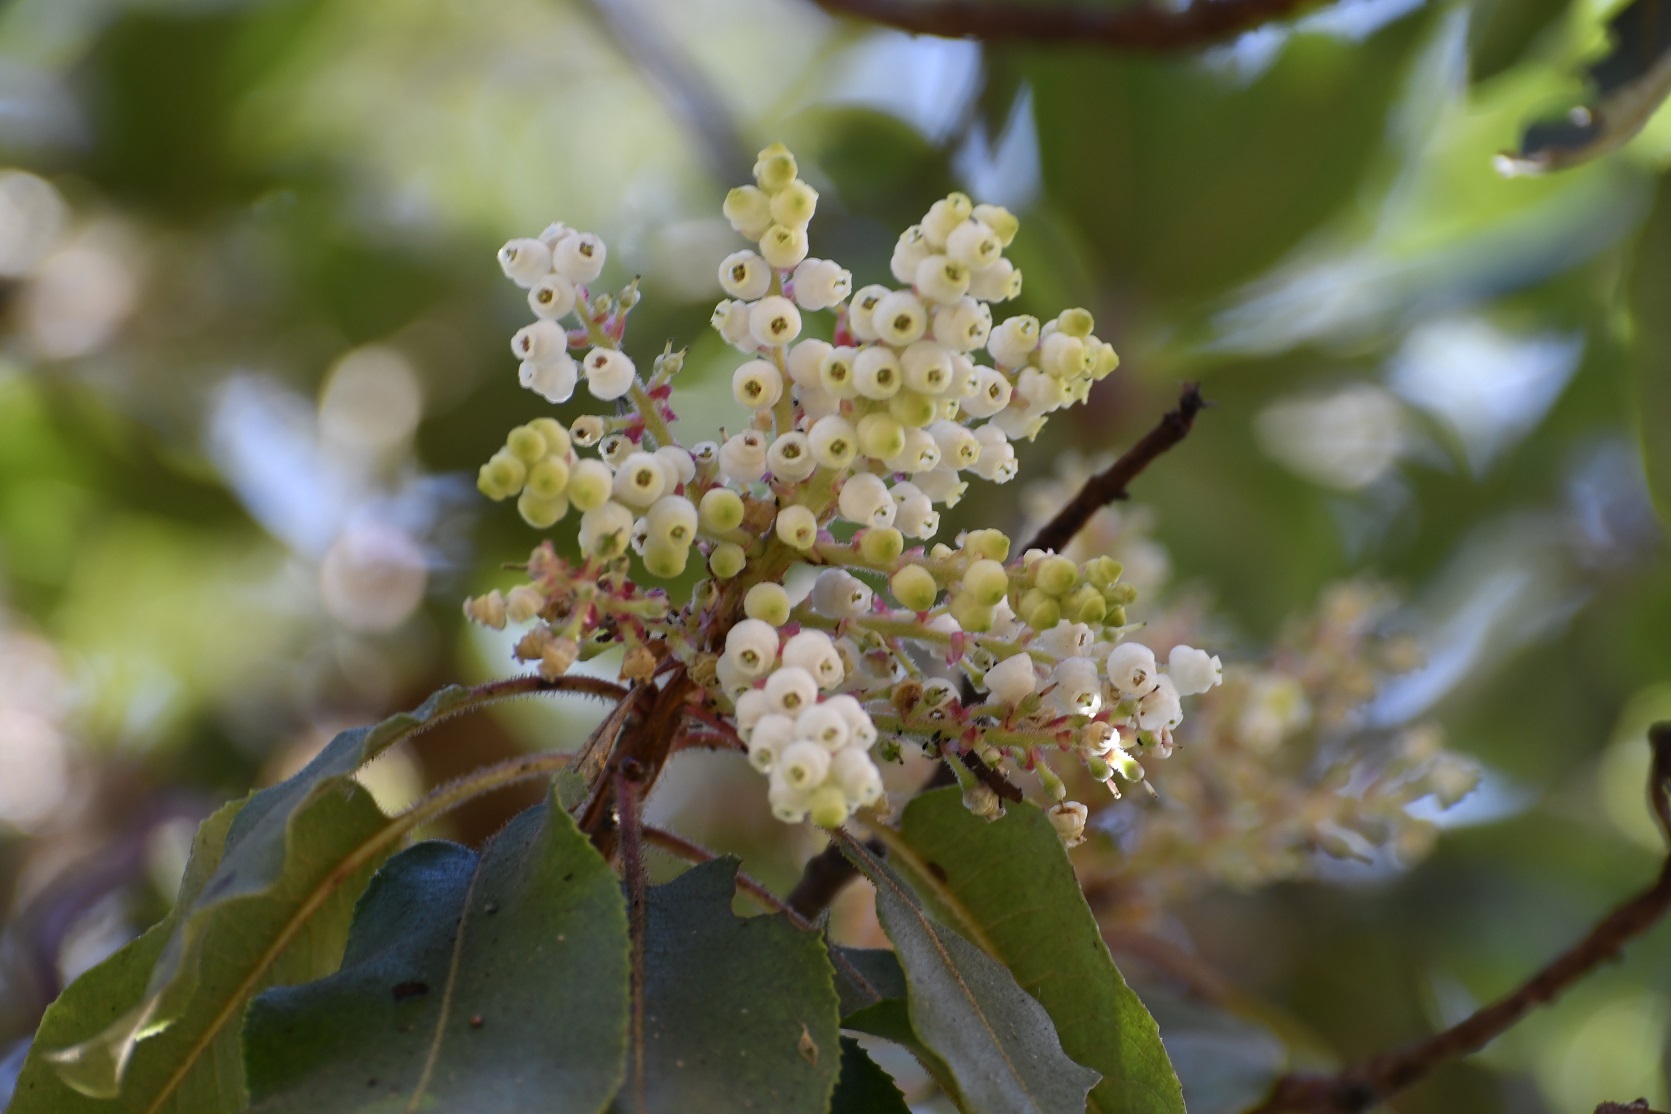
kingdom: Plantae
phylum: Tracheophyta
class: Magnoliopsida
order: Ericales
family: Ericaceae
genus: Arbutus
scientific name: Arbutus xalapensis
